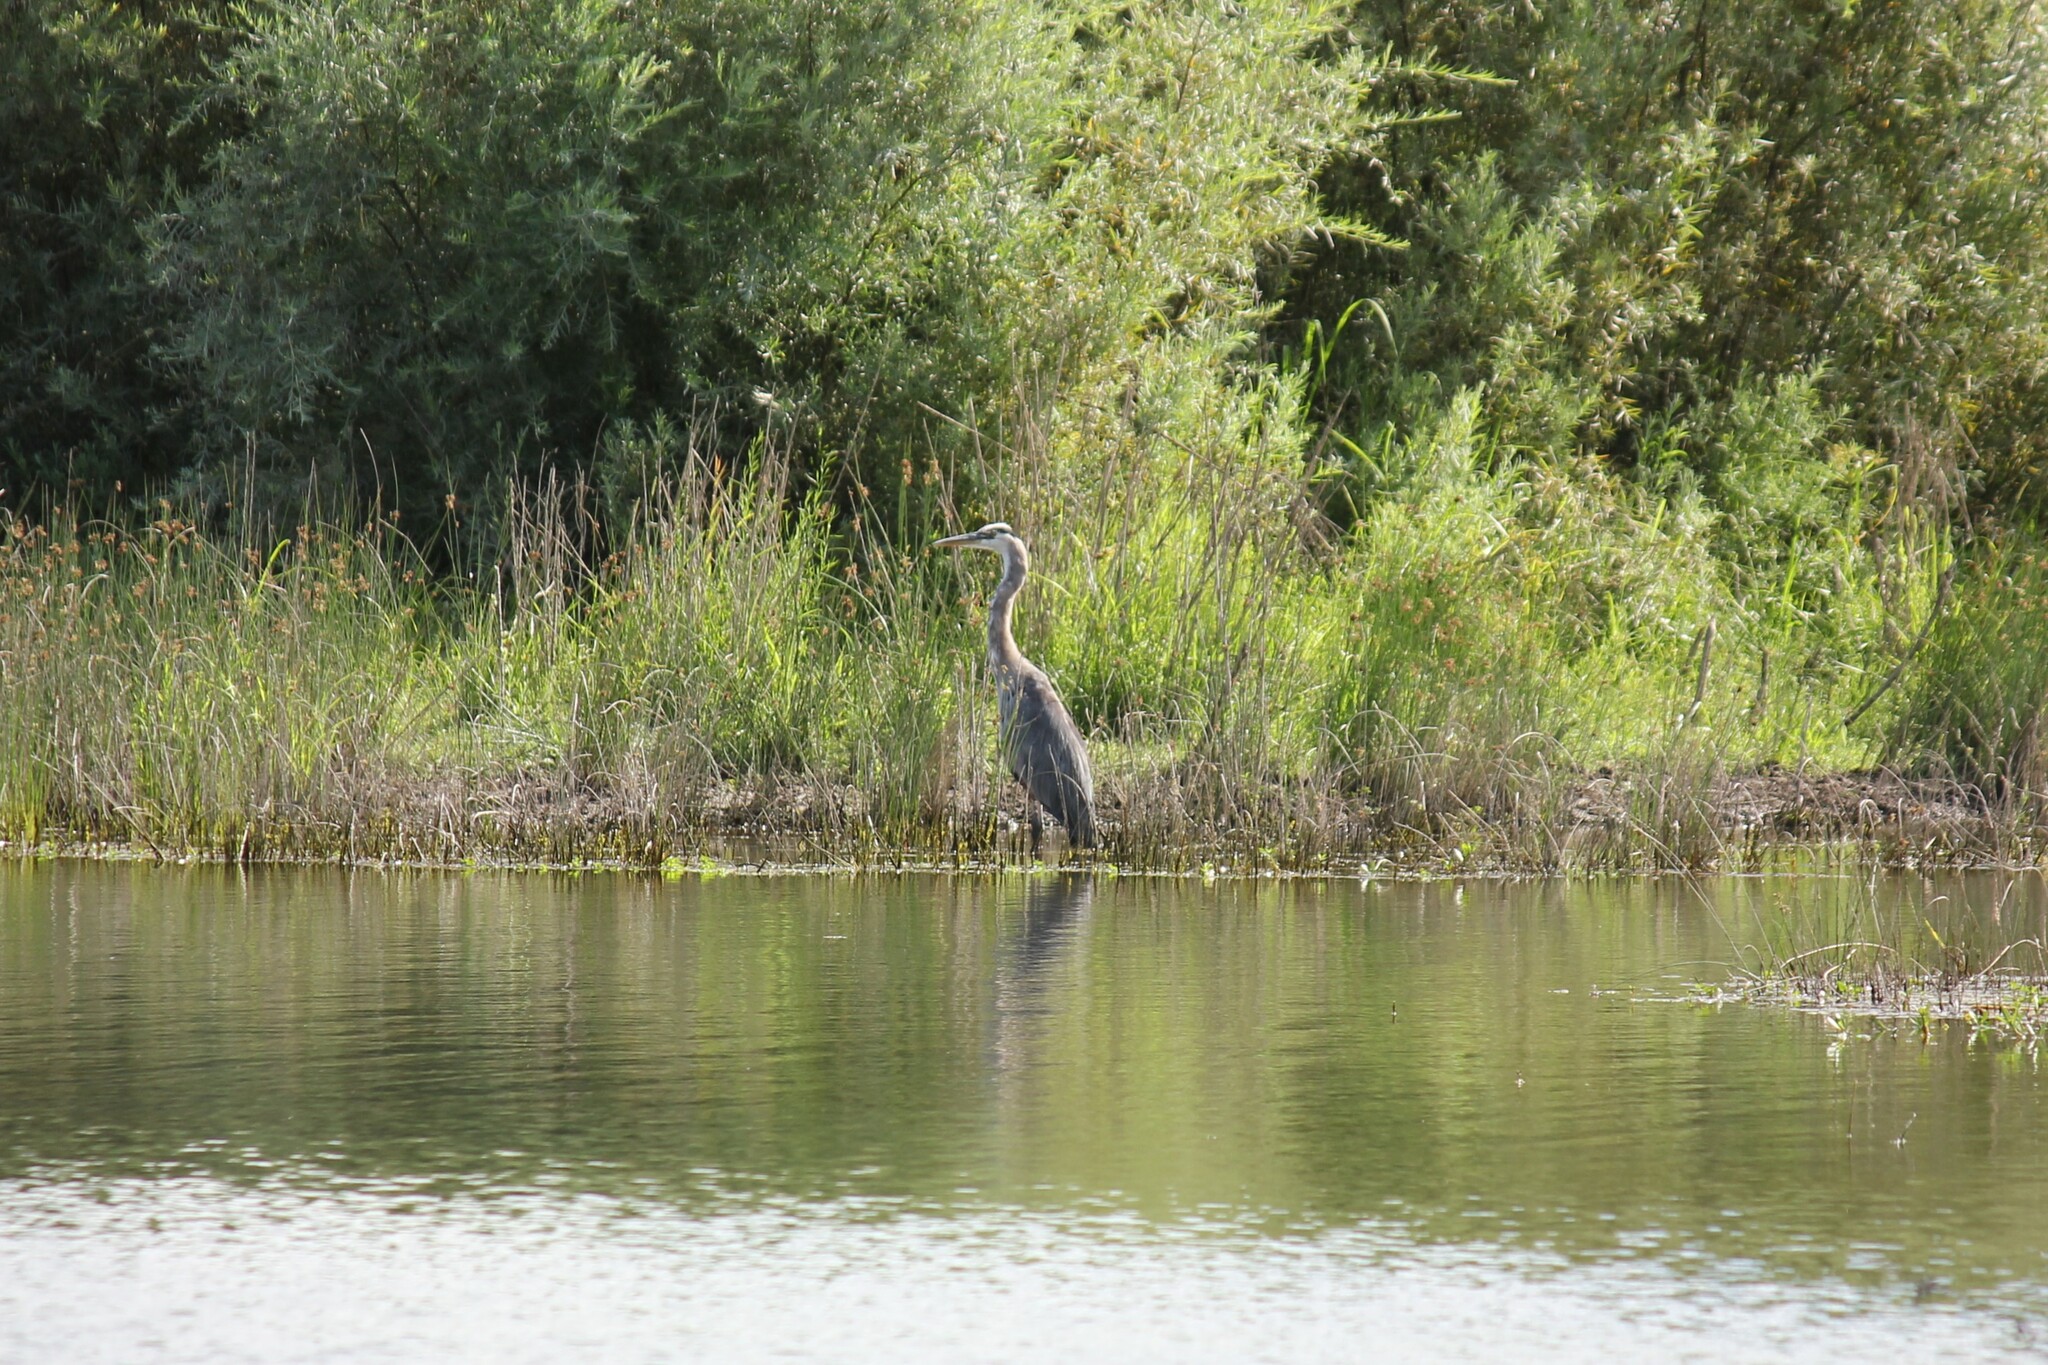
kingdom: Animalia
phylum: Chordata
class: Aves
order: Pelecaniformes
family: Ardeidae
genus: Ardea
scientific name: Ardea herodias
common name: Great blue heron
